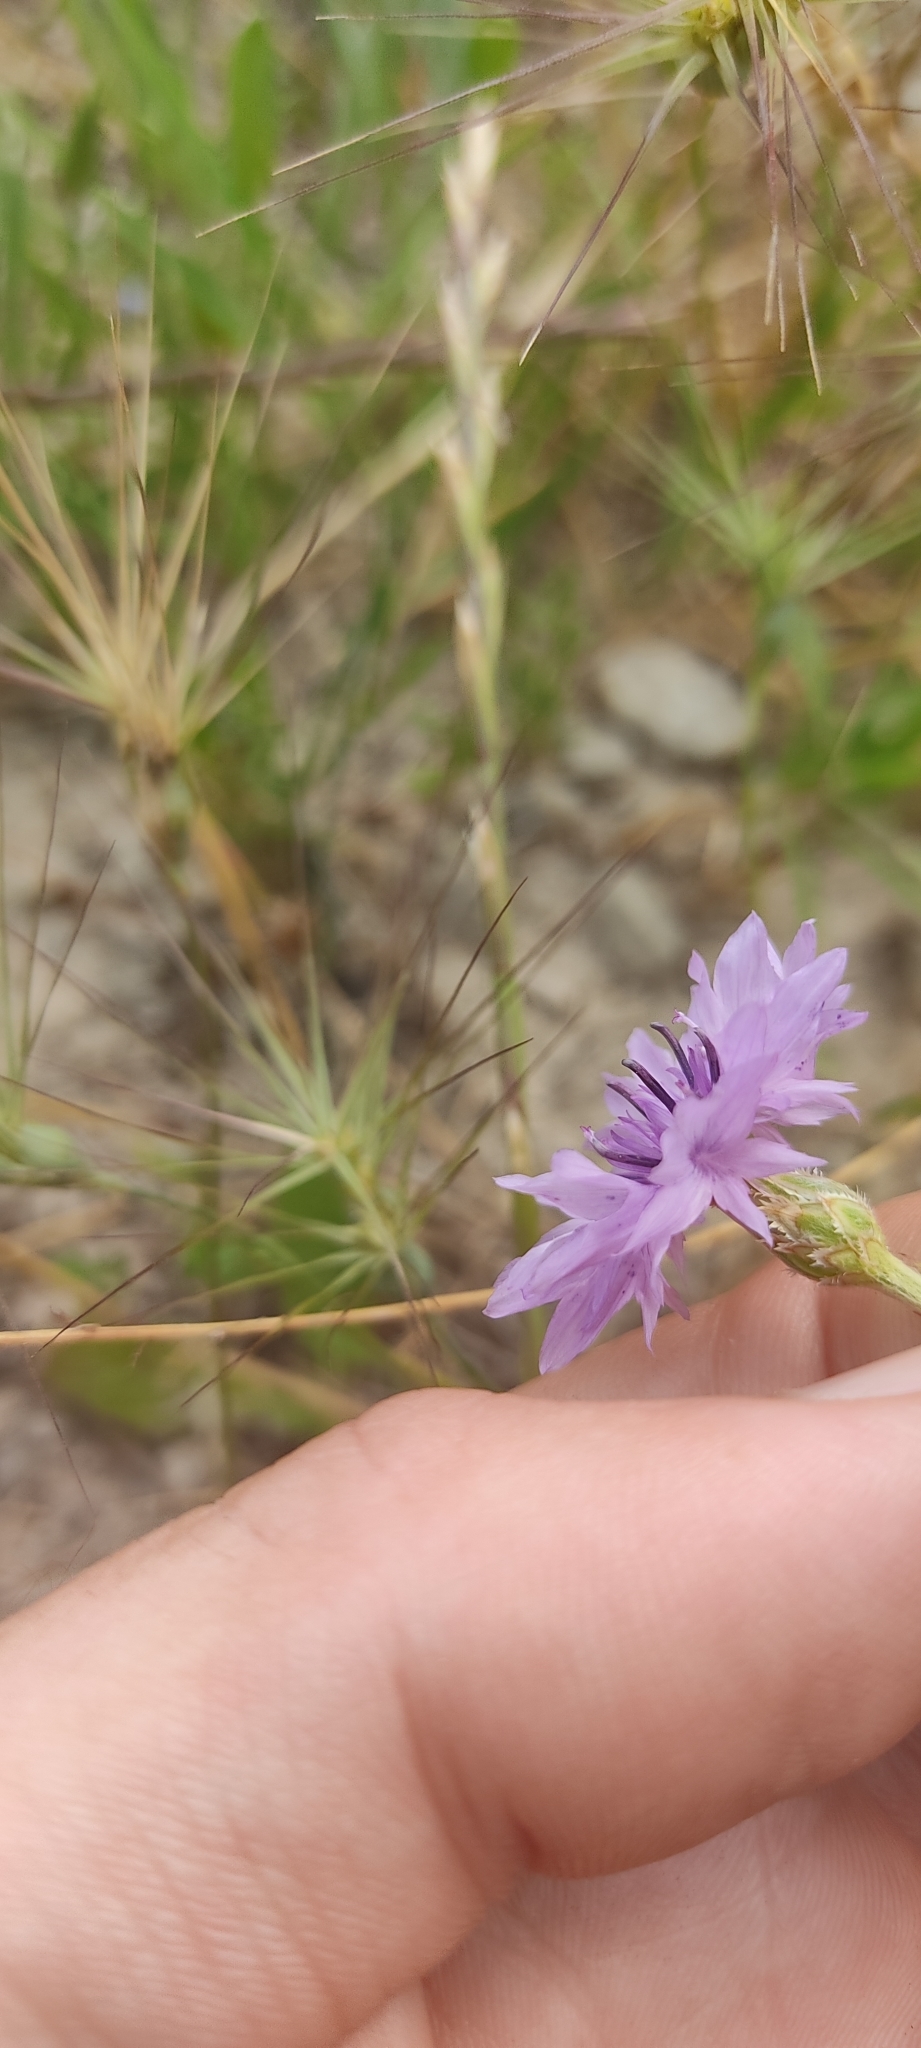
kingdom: Plantae
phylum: Tracheophyta
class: Magnoliopsida
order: Asterales
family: Asteraceae
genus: Centaurea
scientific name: Centaurea cyanus
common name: Cornflower
